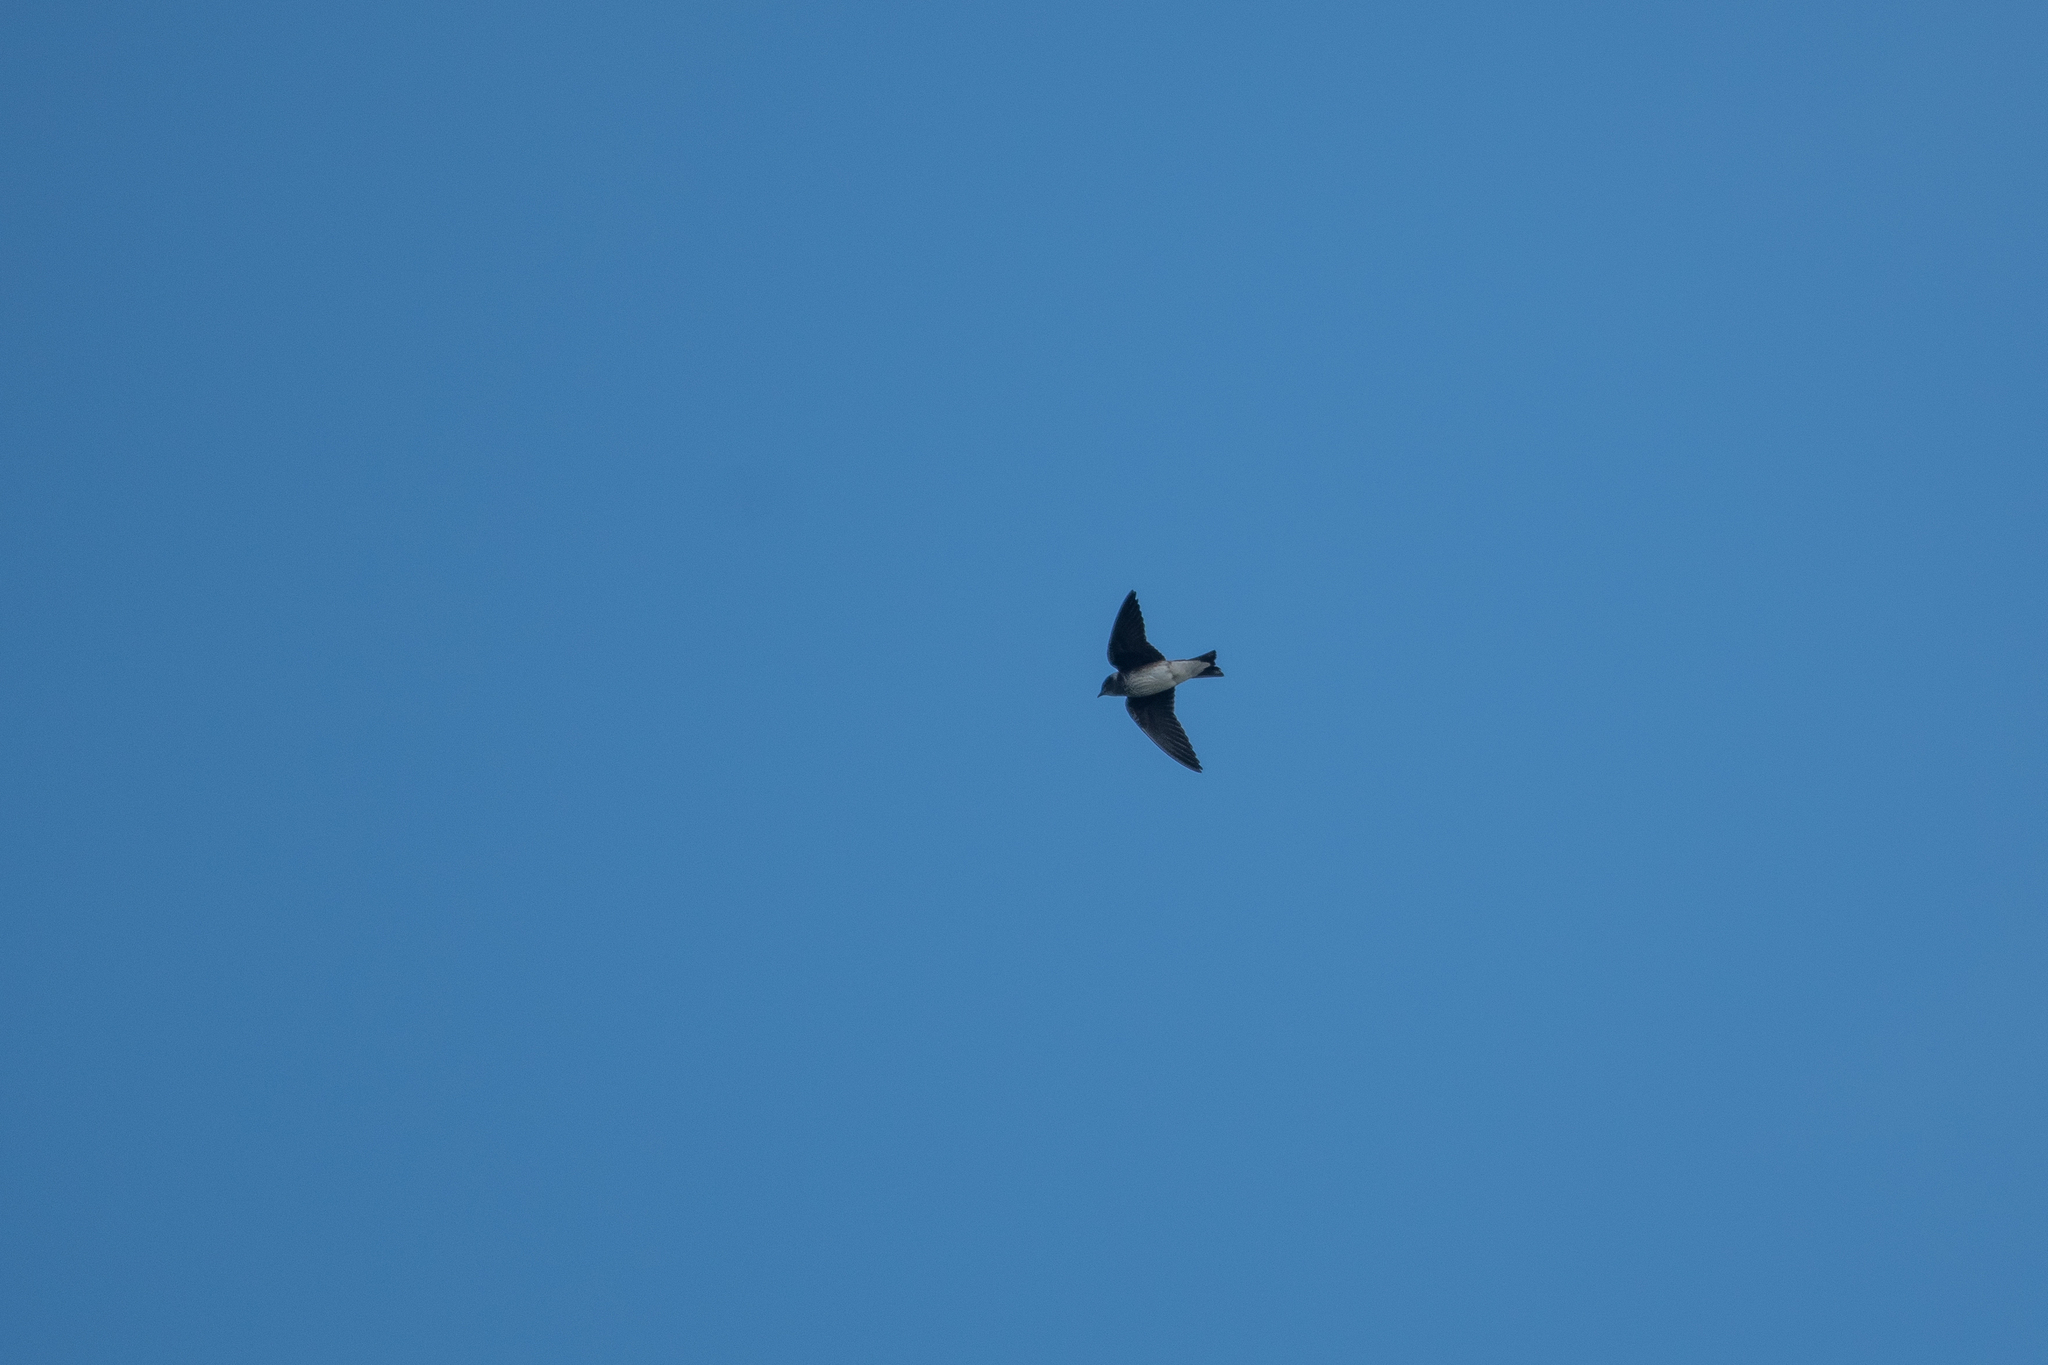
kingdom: Animalia
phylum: Chordata
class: Aves
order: Passeriformes
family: Hirundinidae
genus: Progne
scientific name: Progne subis
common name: Purple martin
